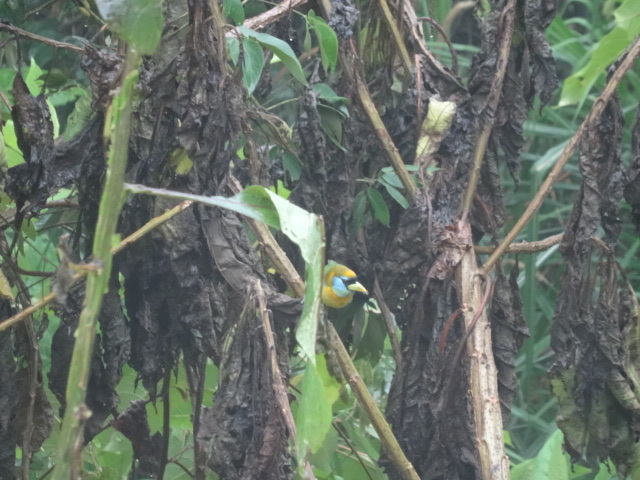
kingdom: Animalia
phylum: Chordata
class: Aves
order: Piciformes
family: Capitonidae
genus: Eubucco
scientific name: Eubucco bourcierii
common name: Red-headed barbet
